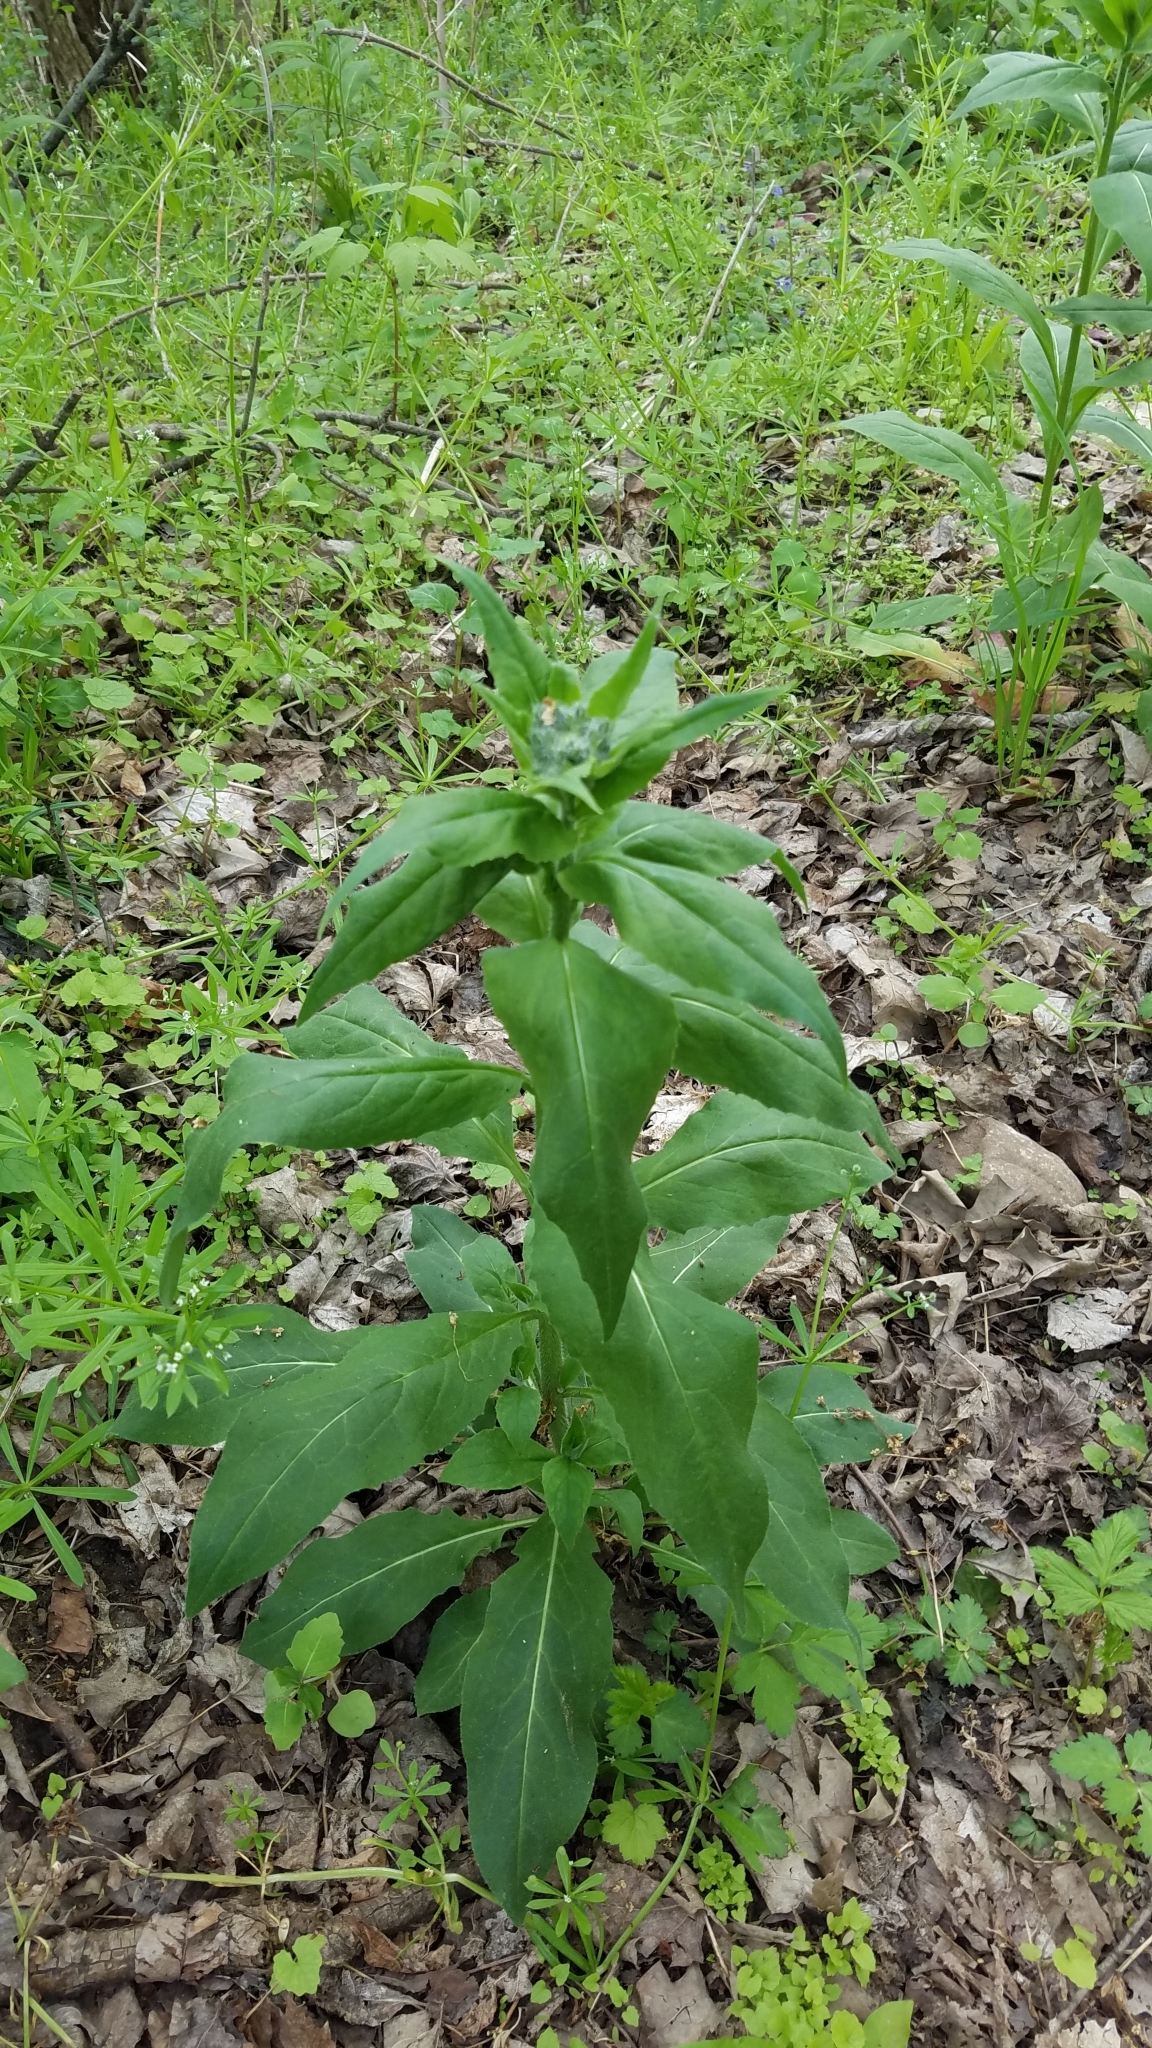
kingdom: Plantae
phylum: Tracheophyta
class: Magnoliopsida
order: Brassicales
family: Brassicaceae
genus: Hesperis
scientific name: Hesperis matronalis
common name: Dame's-violet
